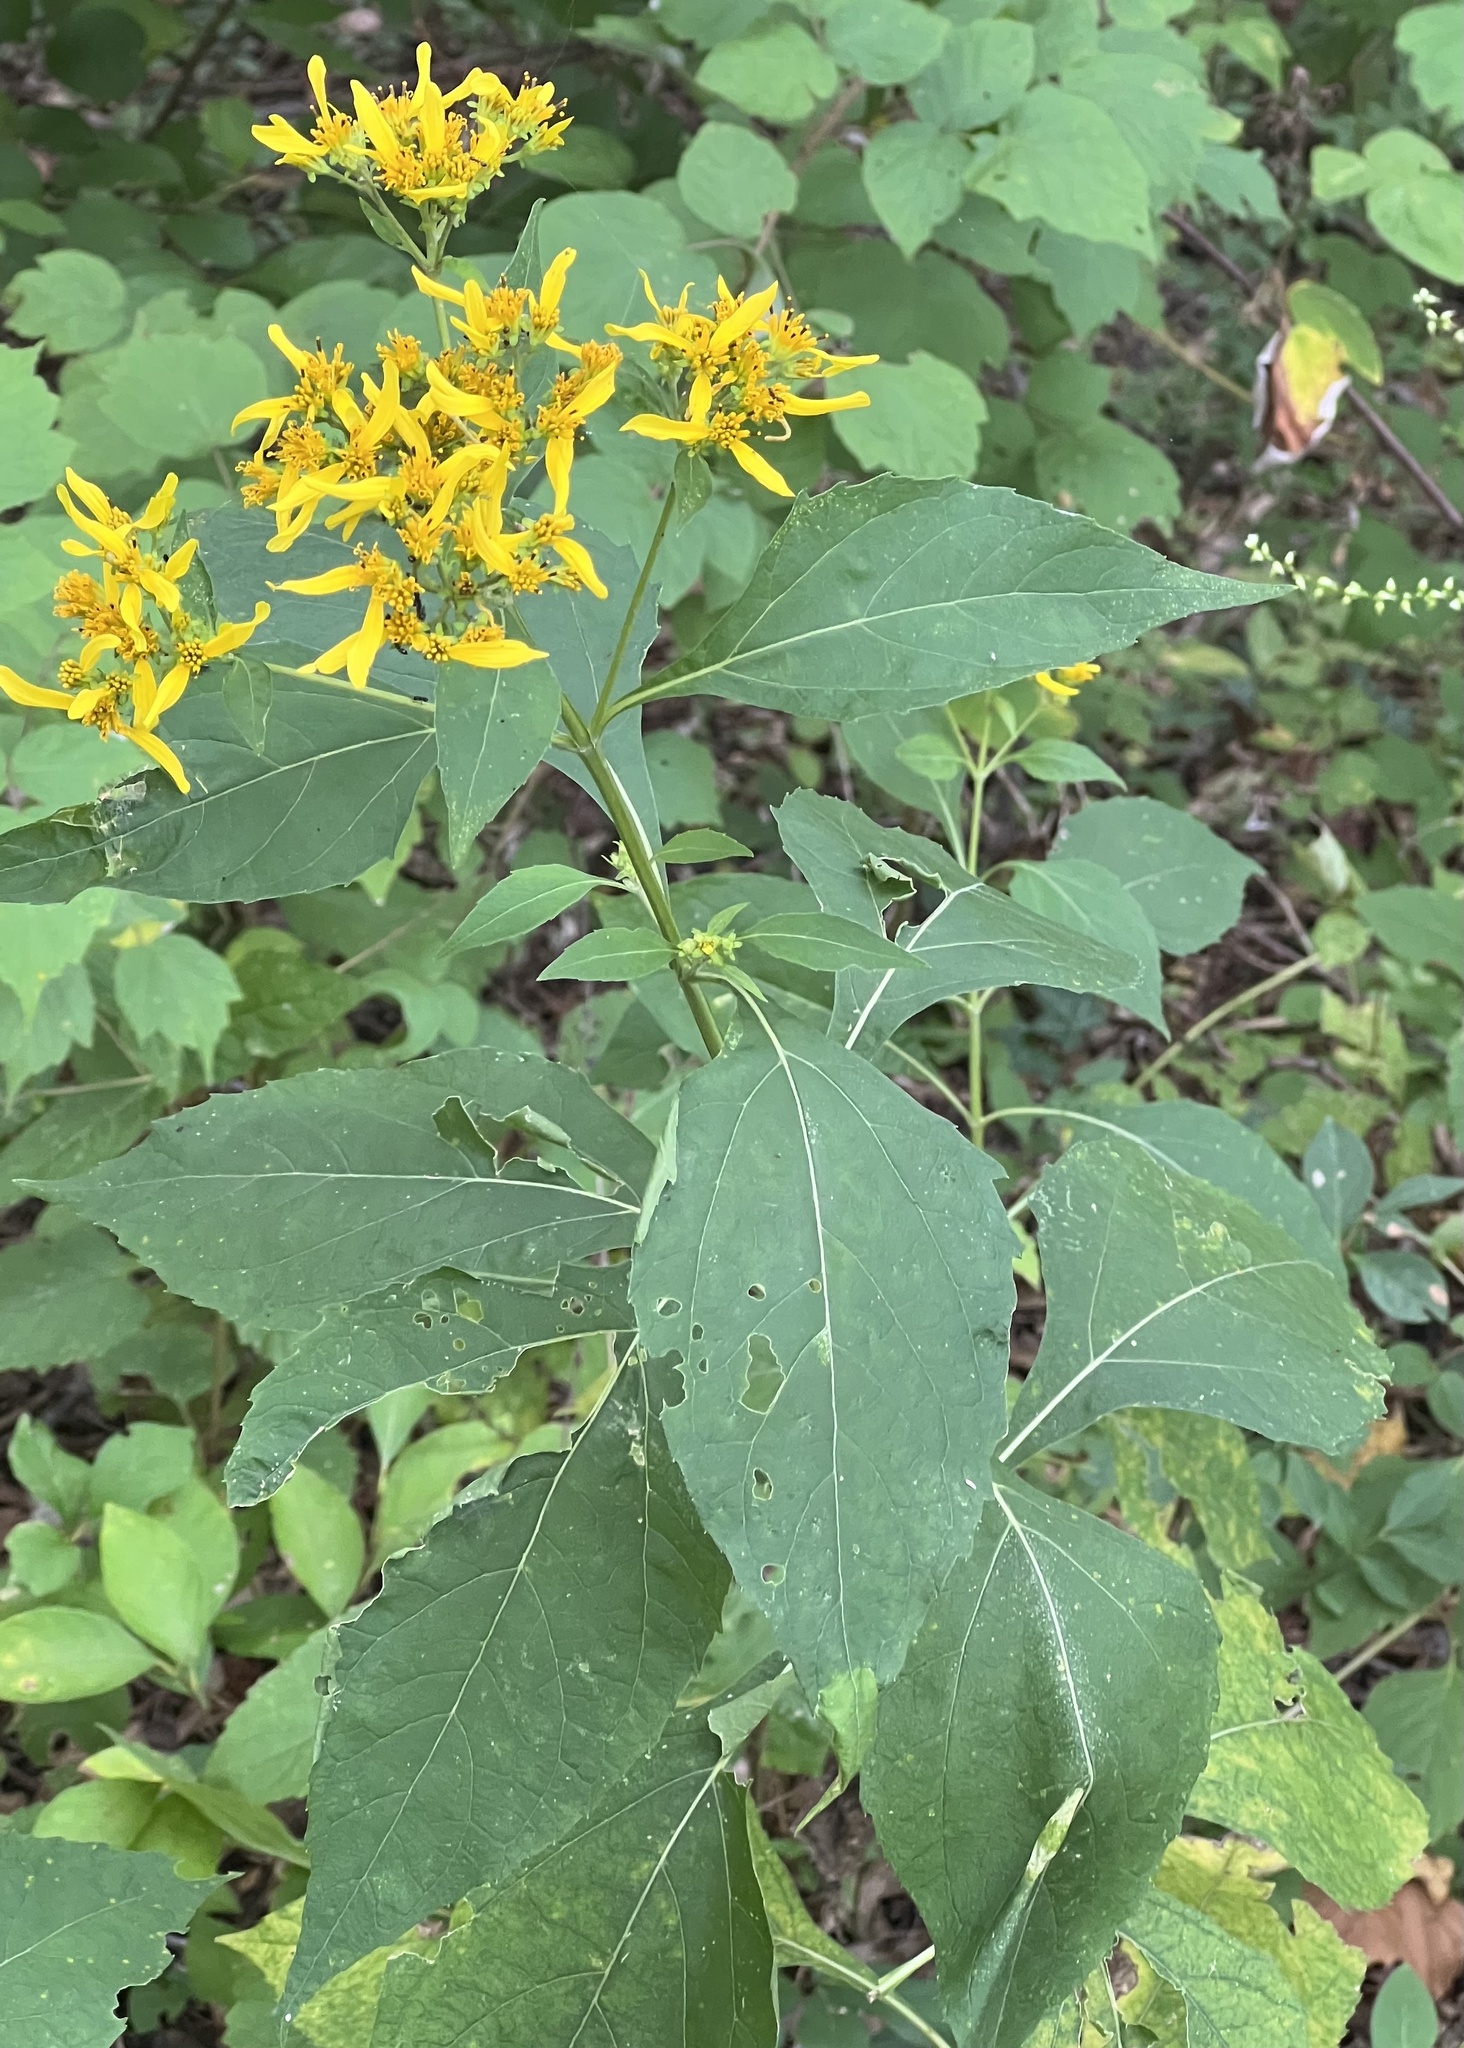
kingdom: Plantae
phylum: Tracheophyta
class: Magnoliopsida
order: Asterales
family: Asteraceae
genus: Verbesina
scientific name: Verbesina occidentalis
